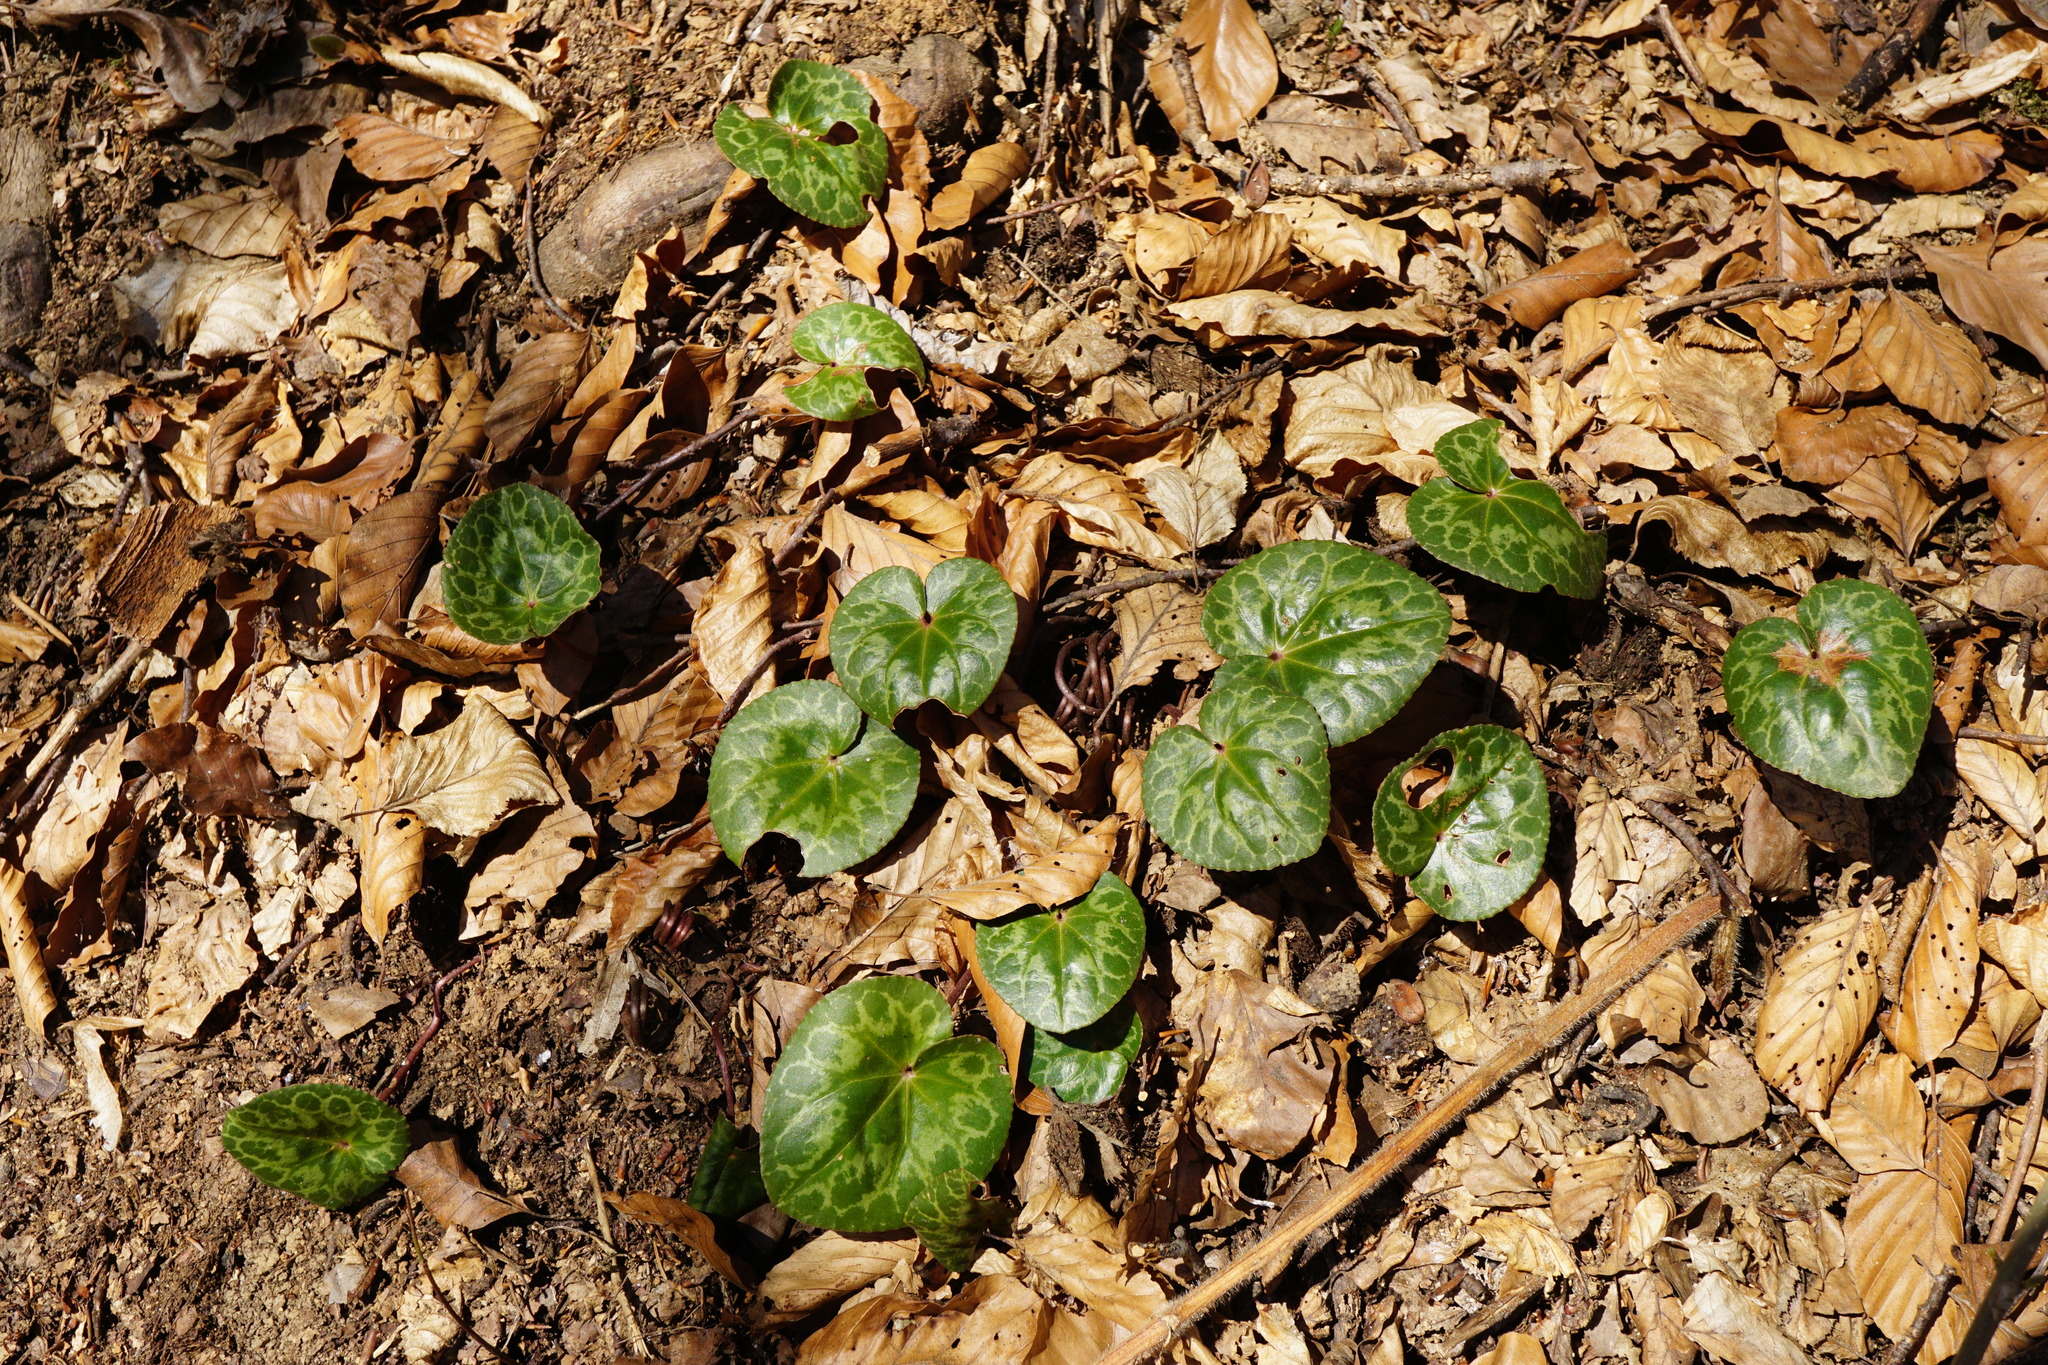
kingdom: Plantae
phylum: Tracheophyta
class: Magnoliopsida
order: Ericales
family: Primulaceae
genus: Cyclamen
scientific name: Cyclamen purpurascens
